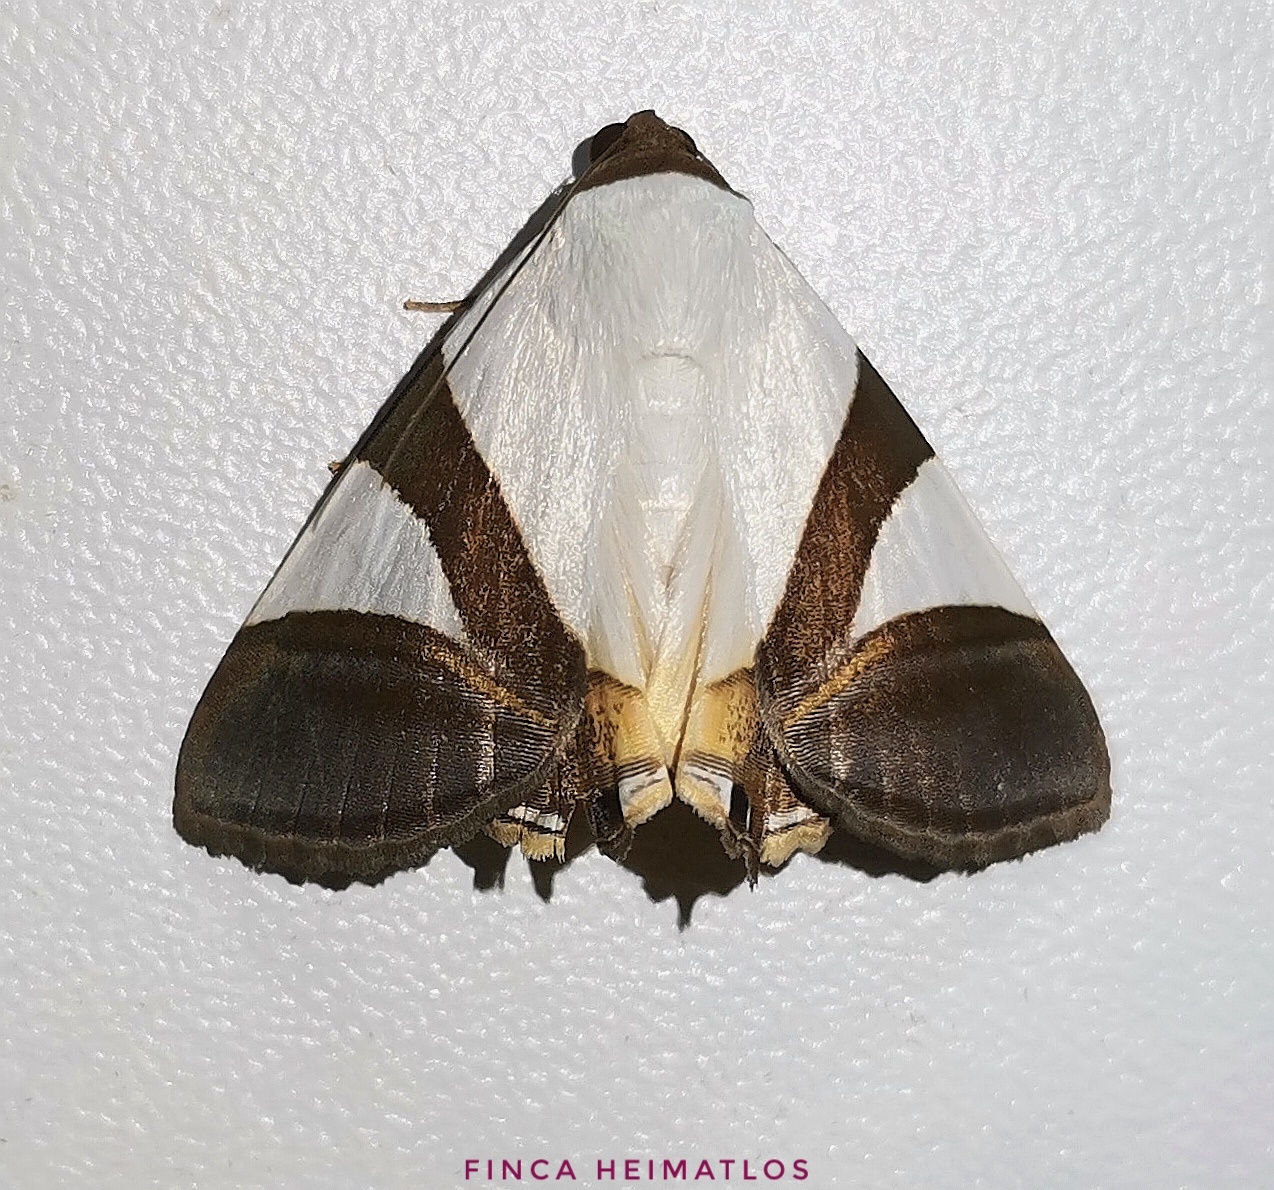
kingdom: Animalia
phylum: Arthropoda
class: Insecta
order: Lepidoptera
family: Erebidae
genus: Eulepidotis
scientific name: Eulepidotis dominicata
